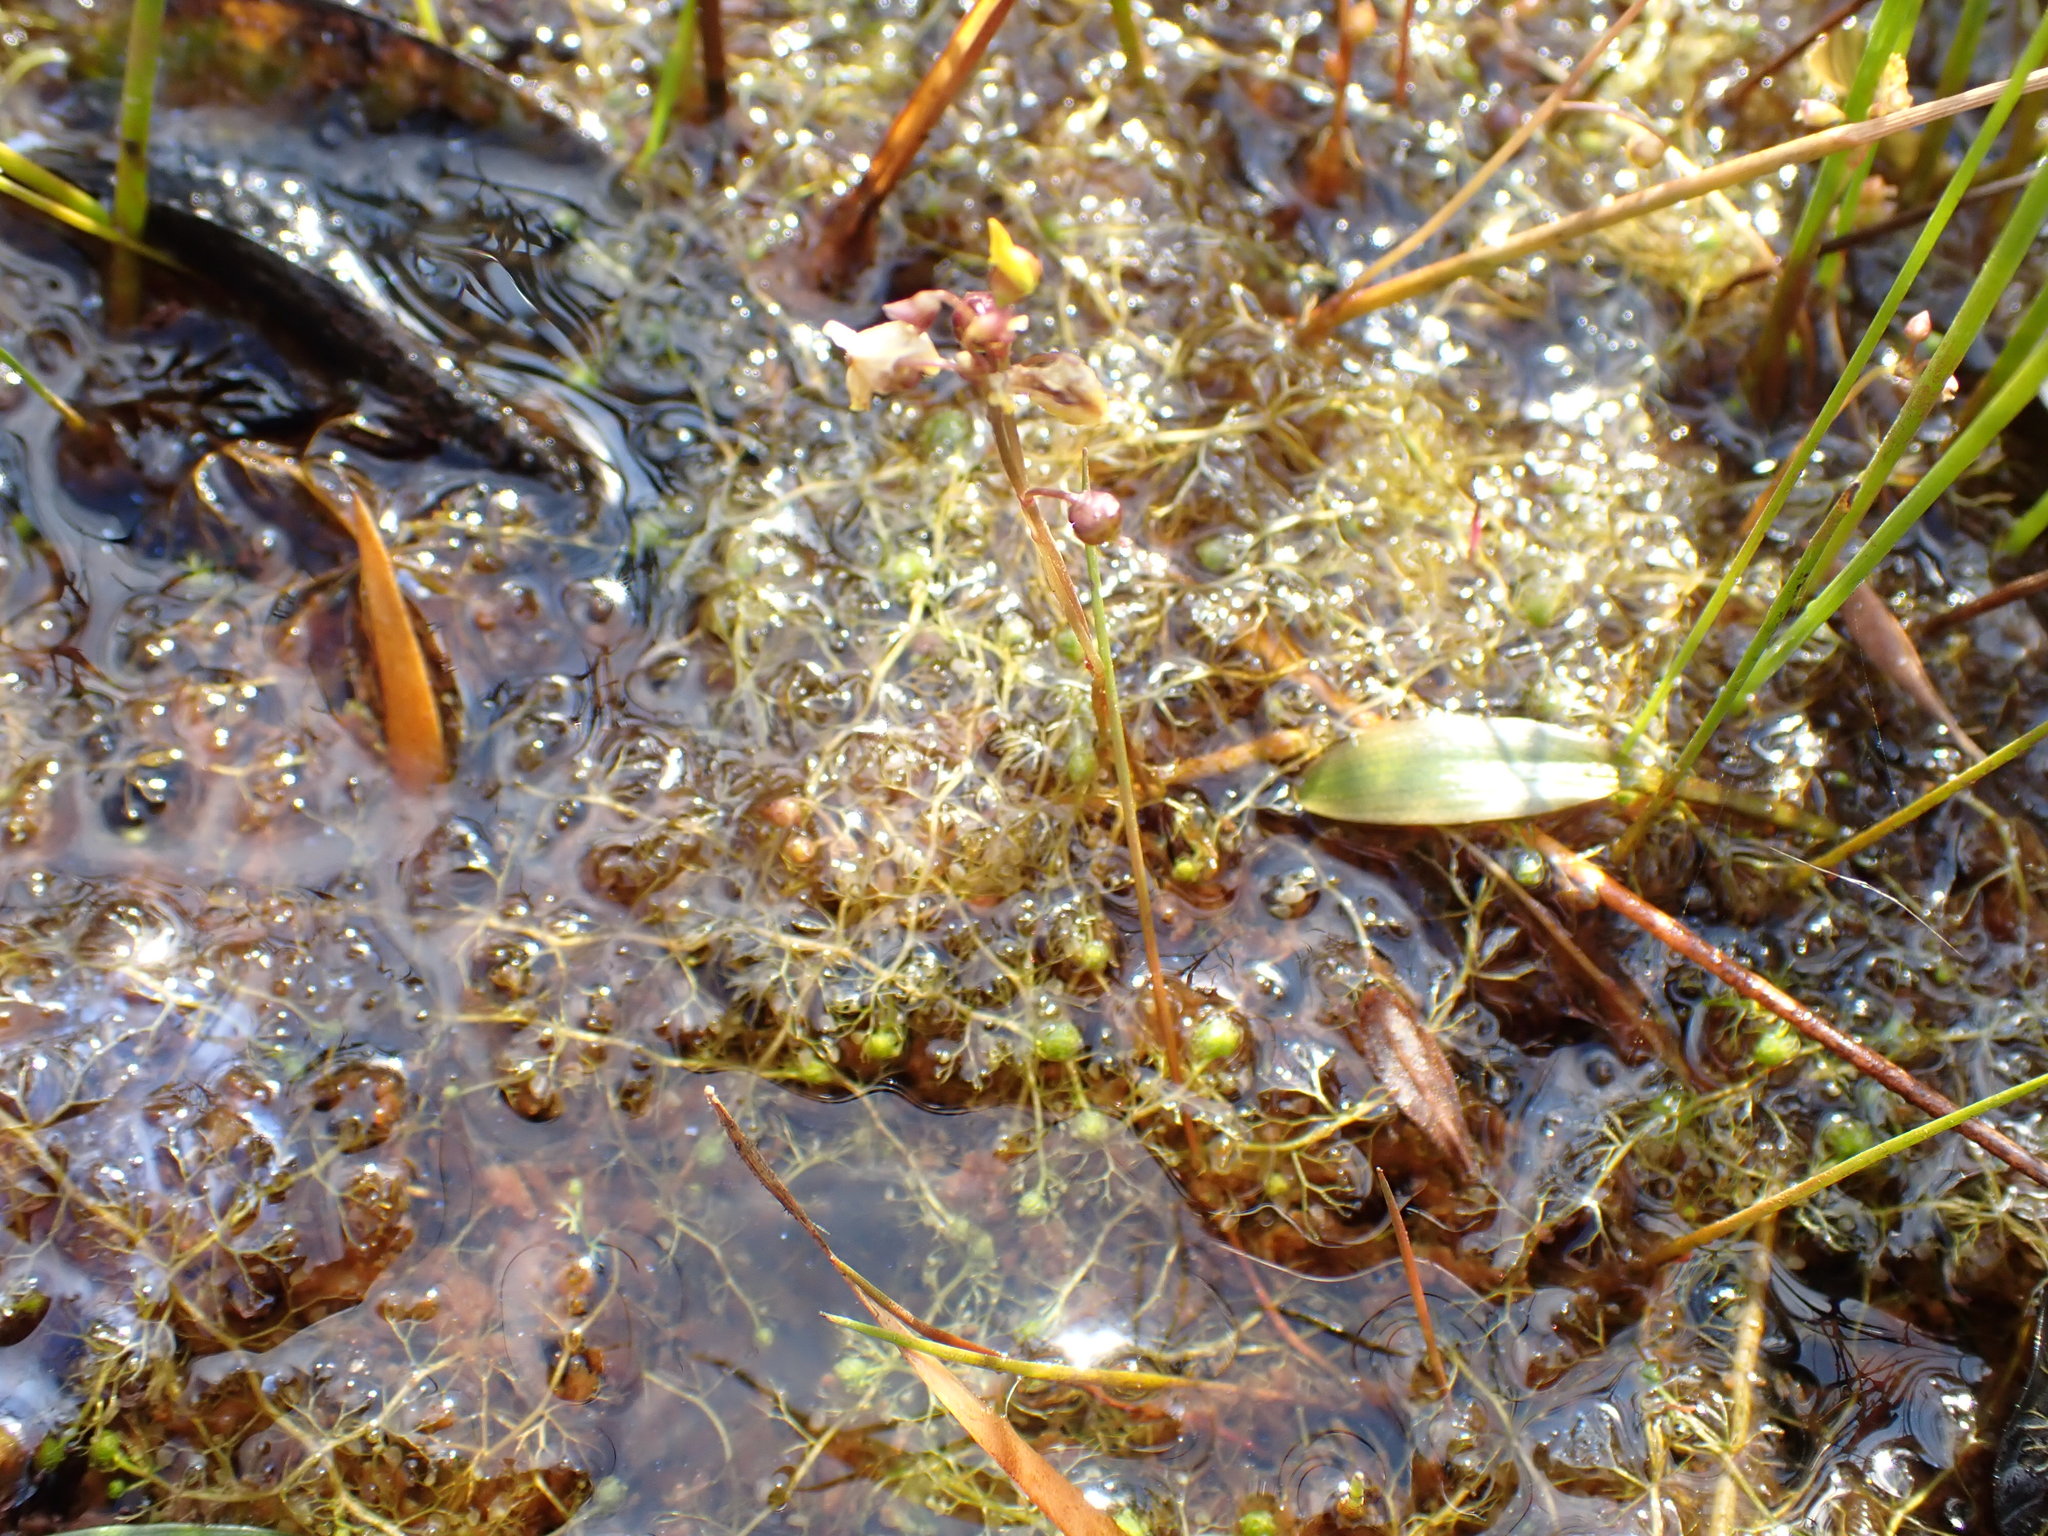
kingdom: Plantae
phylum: Tracheophyta
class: Magnoliopsida
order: Lamiales
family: Lentibulariaceae
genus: Utricularia
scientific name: Utricularia minor
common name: Lesser bladderwort
